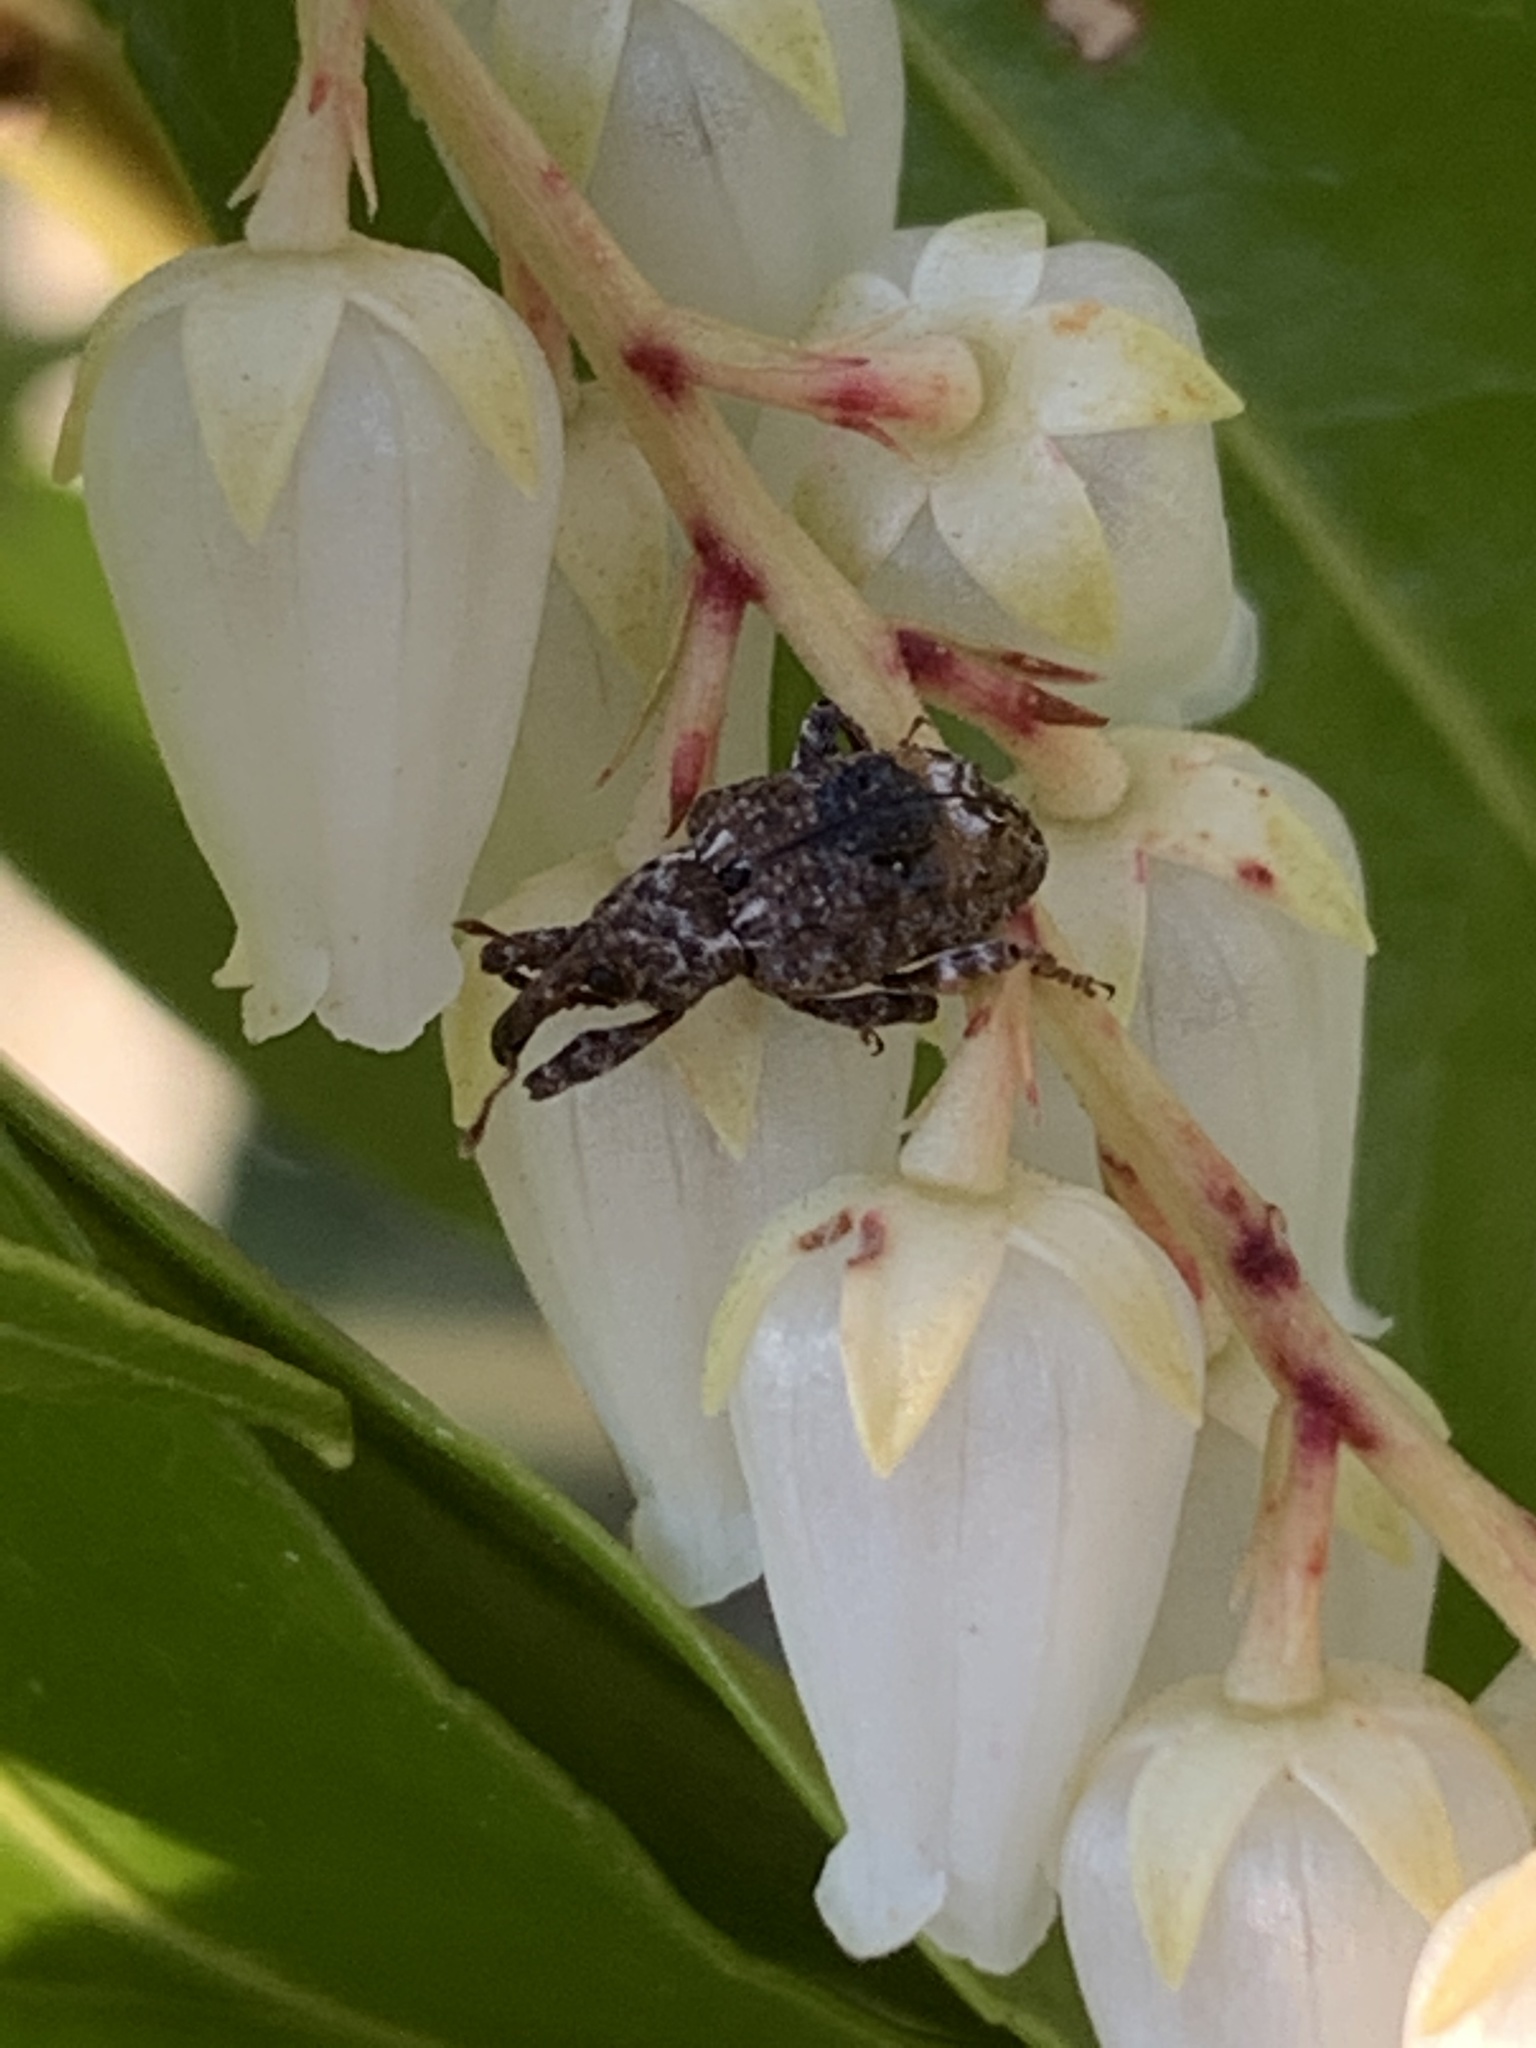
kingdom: Animalia
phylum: Arthropoda
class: Insecta
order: Coleoptera
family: Curculionidae
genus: Conotrachelus
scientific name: Conotrachelus nenuphar
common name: Plum curculio
